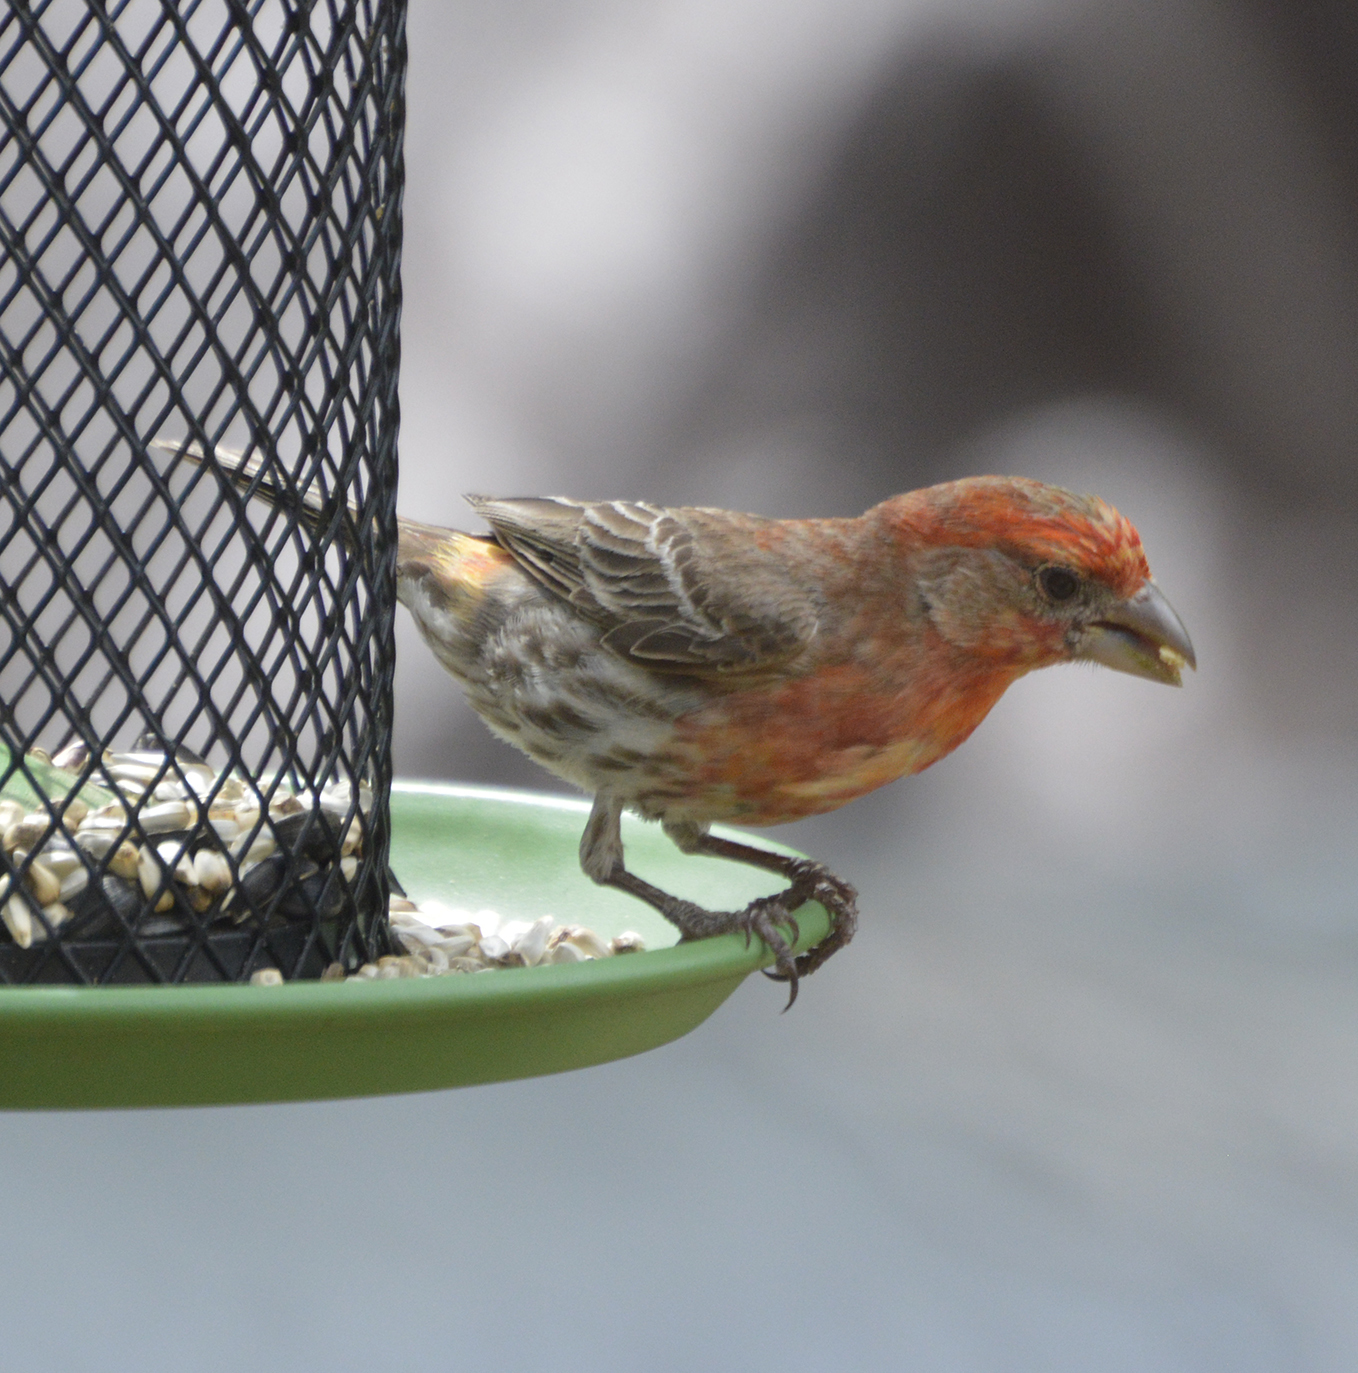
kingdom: Animalia
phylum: Chordata
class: Aves
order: Passeriformes
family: Fringillidae
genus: Haemorhous
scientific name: Haemorhous mexicanus
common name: House finch
